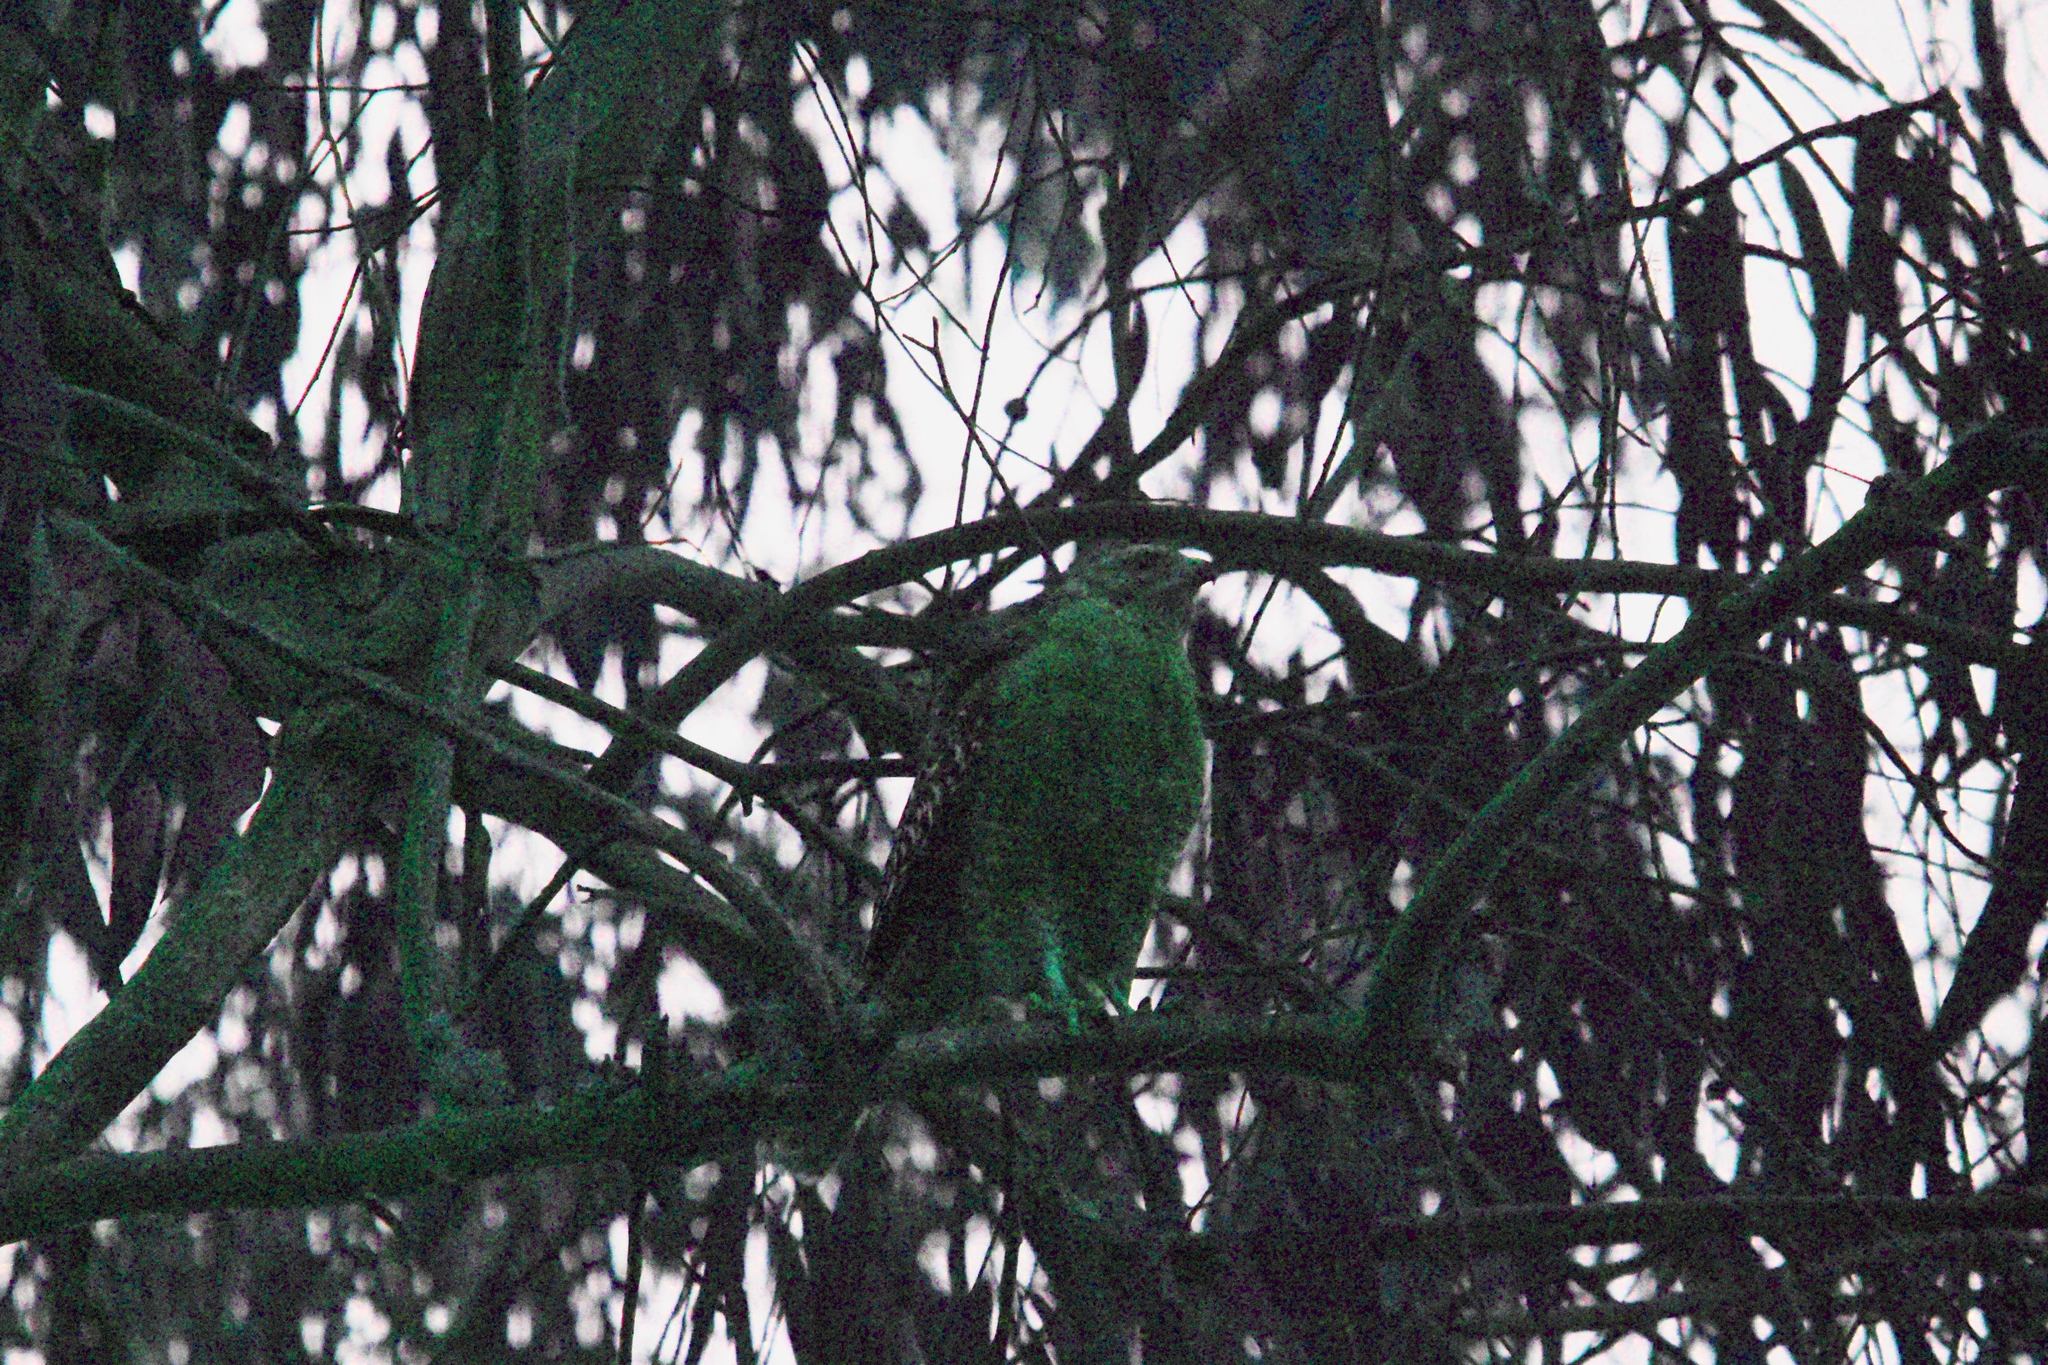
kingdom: Animalia
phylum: Chordata
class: Aves
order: Accipitriformes
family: Accipitridae
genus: Buteo
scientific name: Buteo lineatus
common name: Red-shouldered hawk
